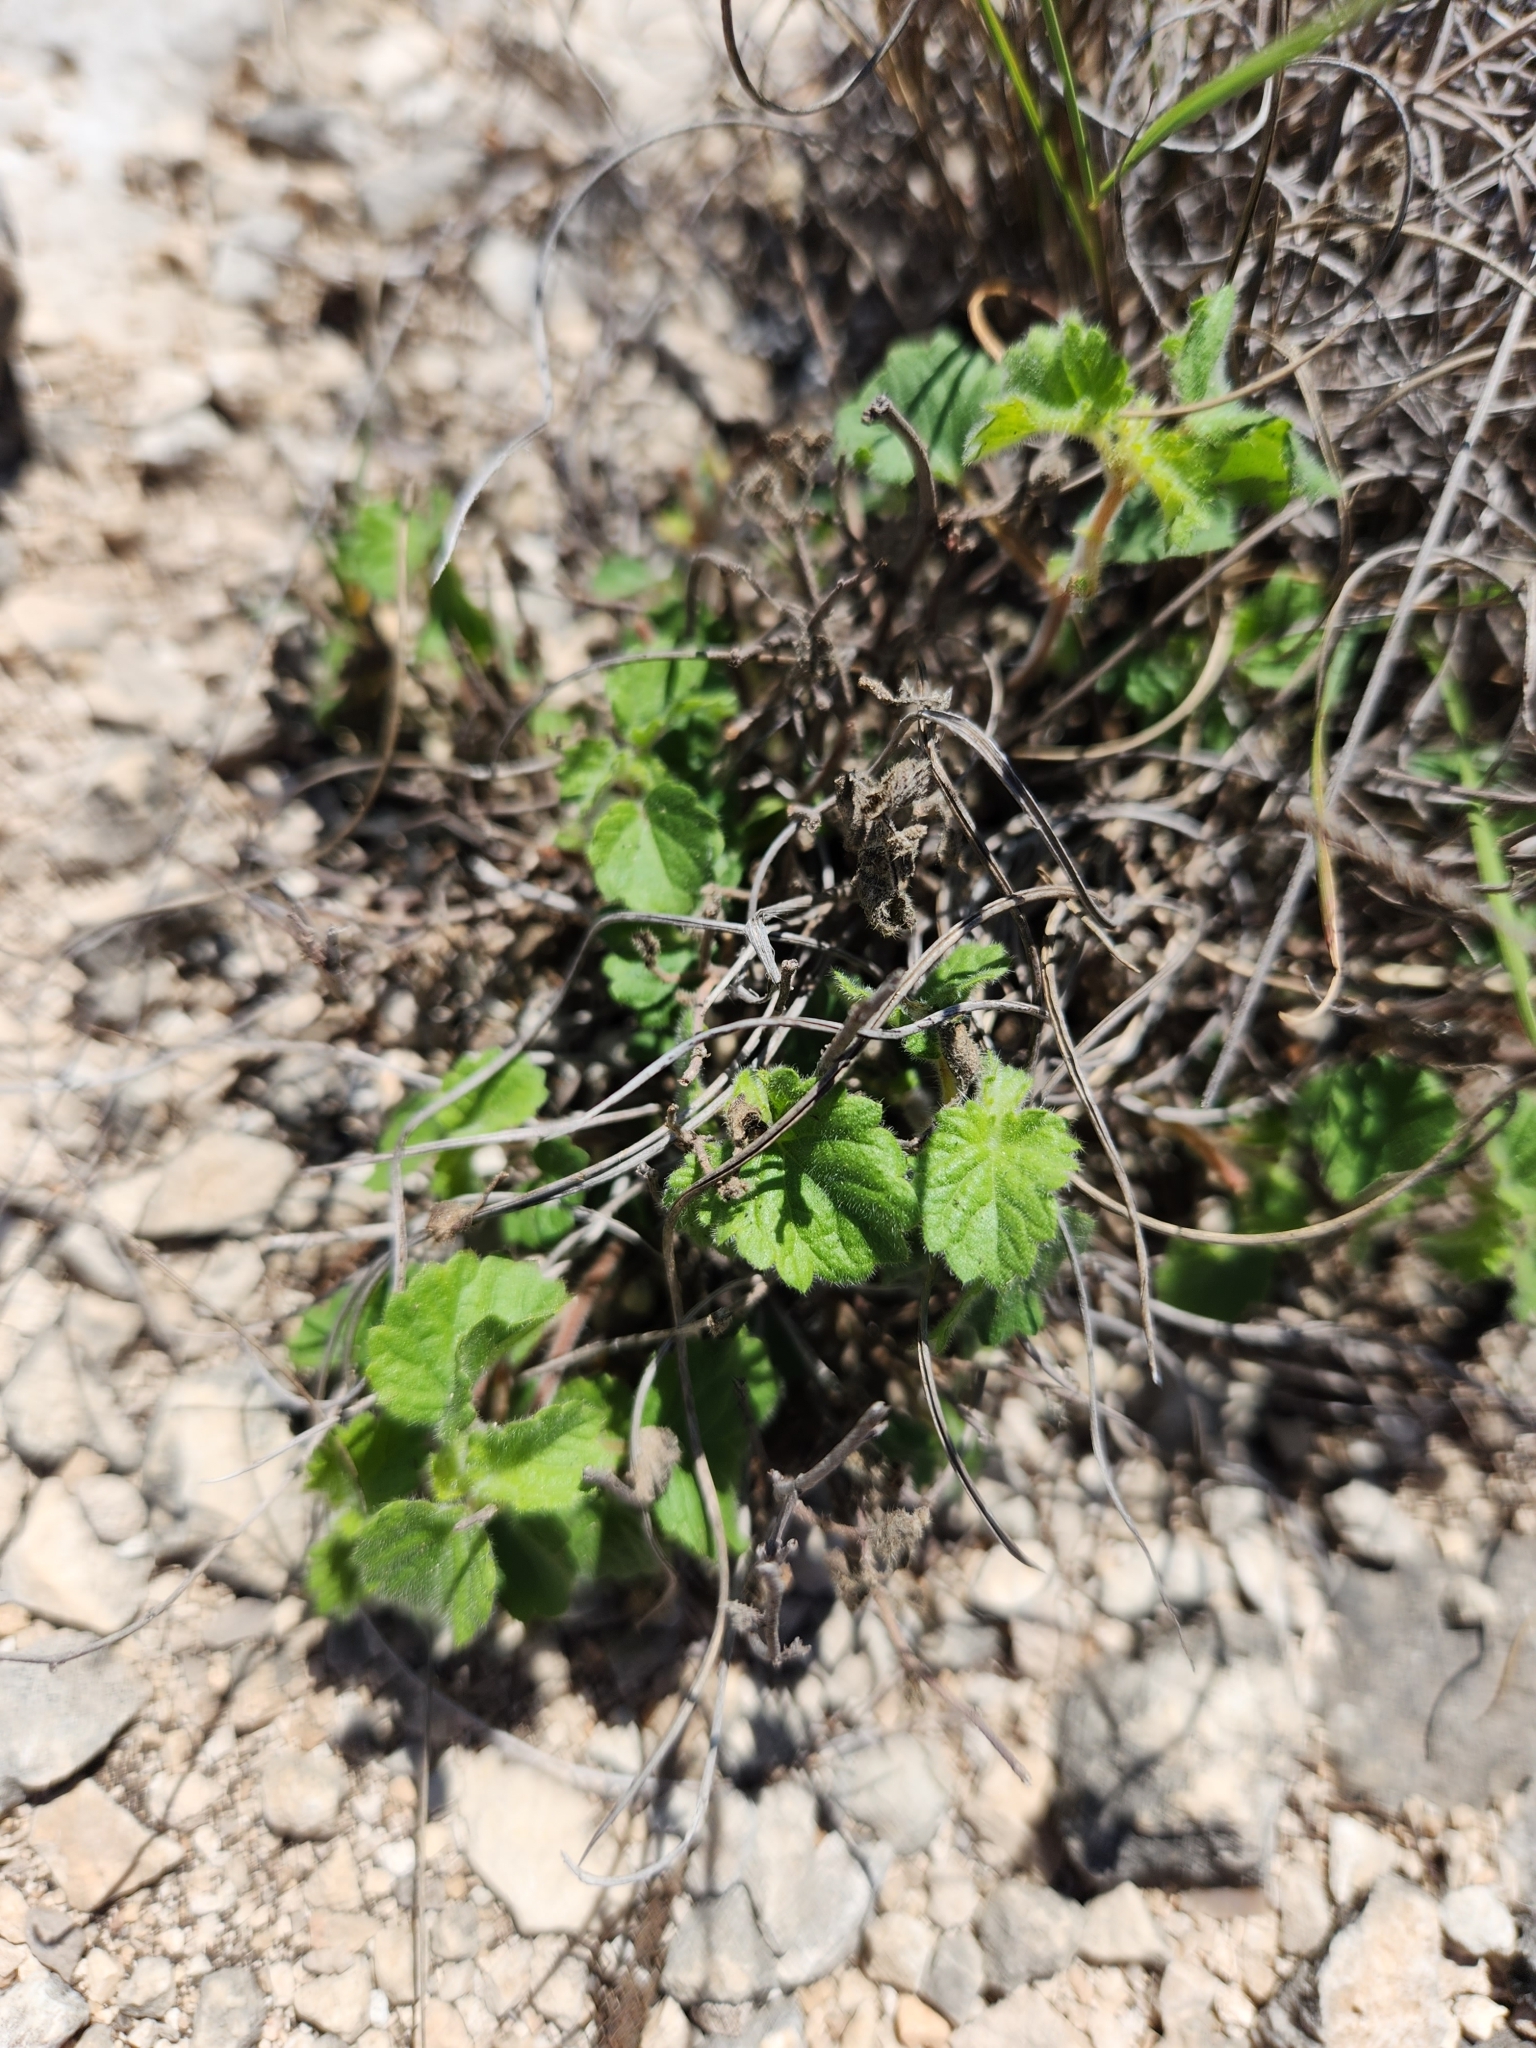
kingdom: Plantae
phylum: Tracheophyta
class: Magnoliopsida
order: Malpighiales
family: Euphorbiaceae
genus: Acalypha
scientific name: Acalypha monostachya
